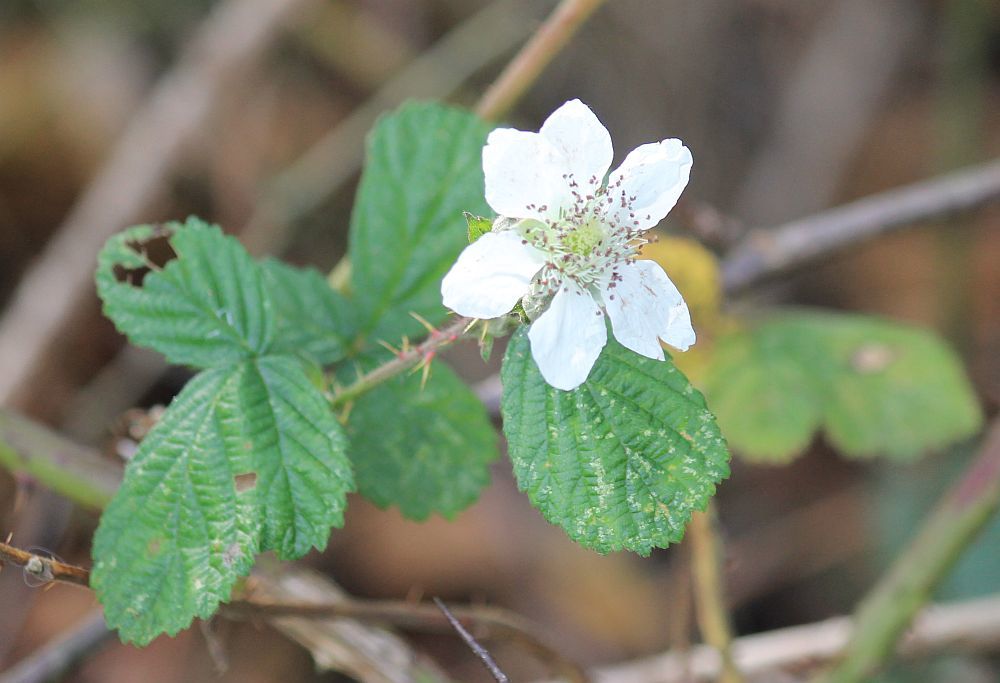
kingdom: Plantae
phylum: Tracheophyta
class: Magnoliopsida
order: Rosales
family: Rosaceae
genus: Rubus
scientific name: Rubus
